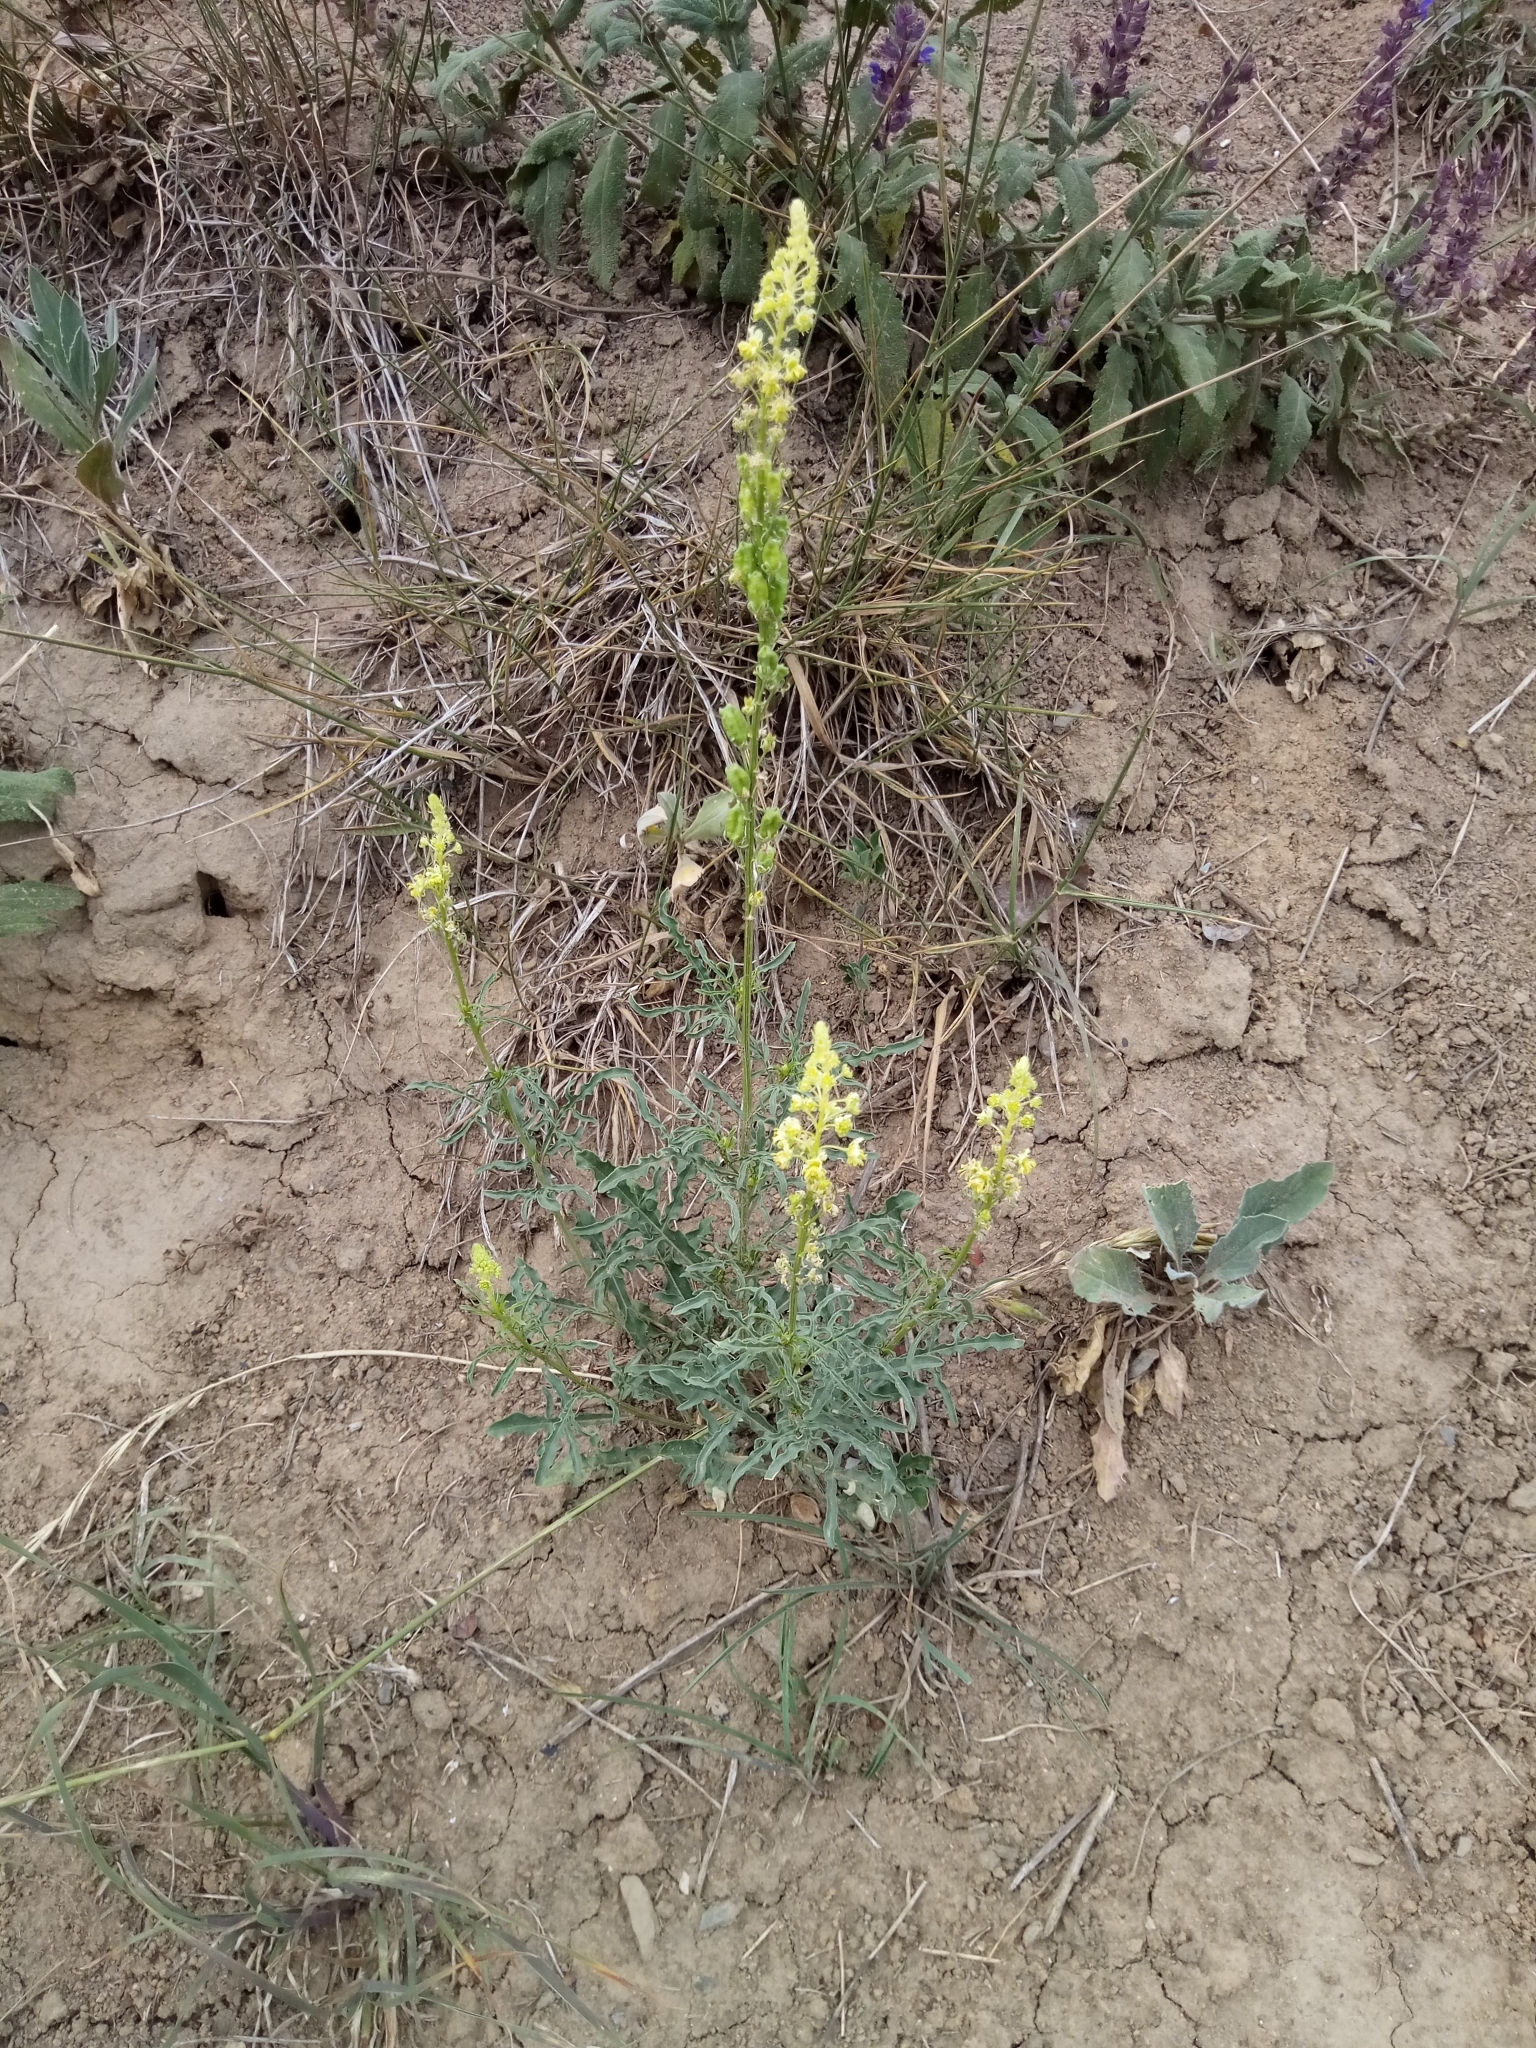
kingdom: Plantae
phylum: Tracheophyta
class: Magnoliopsida
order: Brassicales
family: Resedaceae
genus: Reseda
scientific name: Reseda lutea
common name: Wild mignonette
